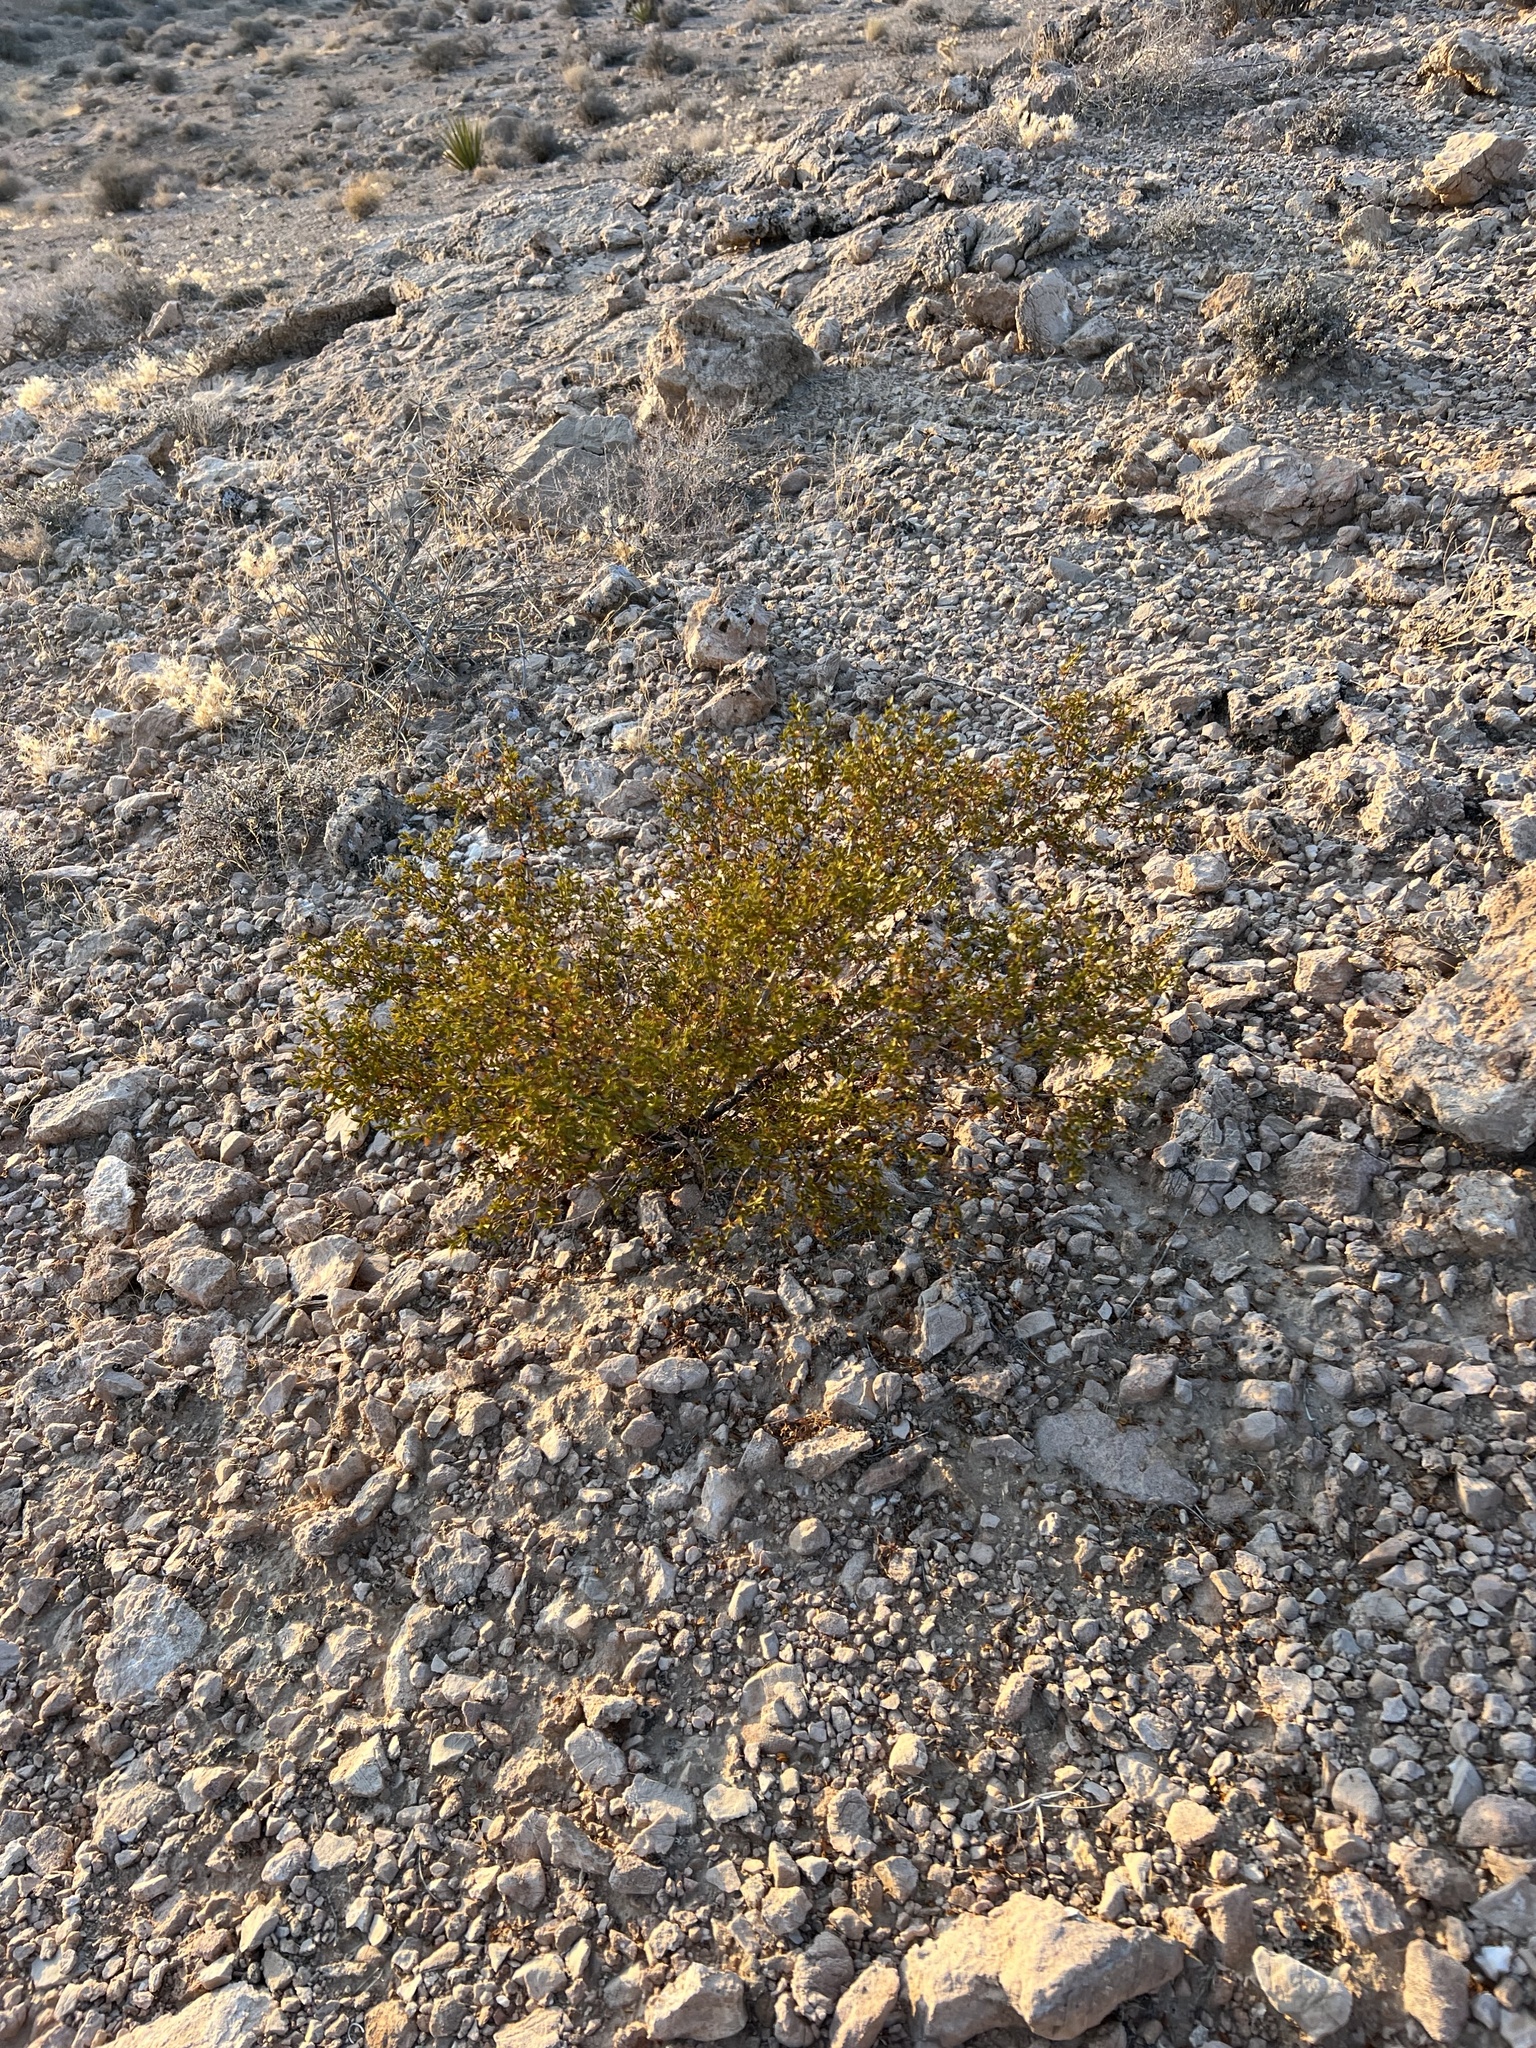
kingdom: Plantae
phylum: Tracheophyta
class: Magnoliopsida
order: Zygophyllales
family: Zygophyllaceae
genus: Larrea
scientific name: Larrea tridentata
